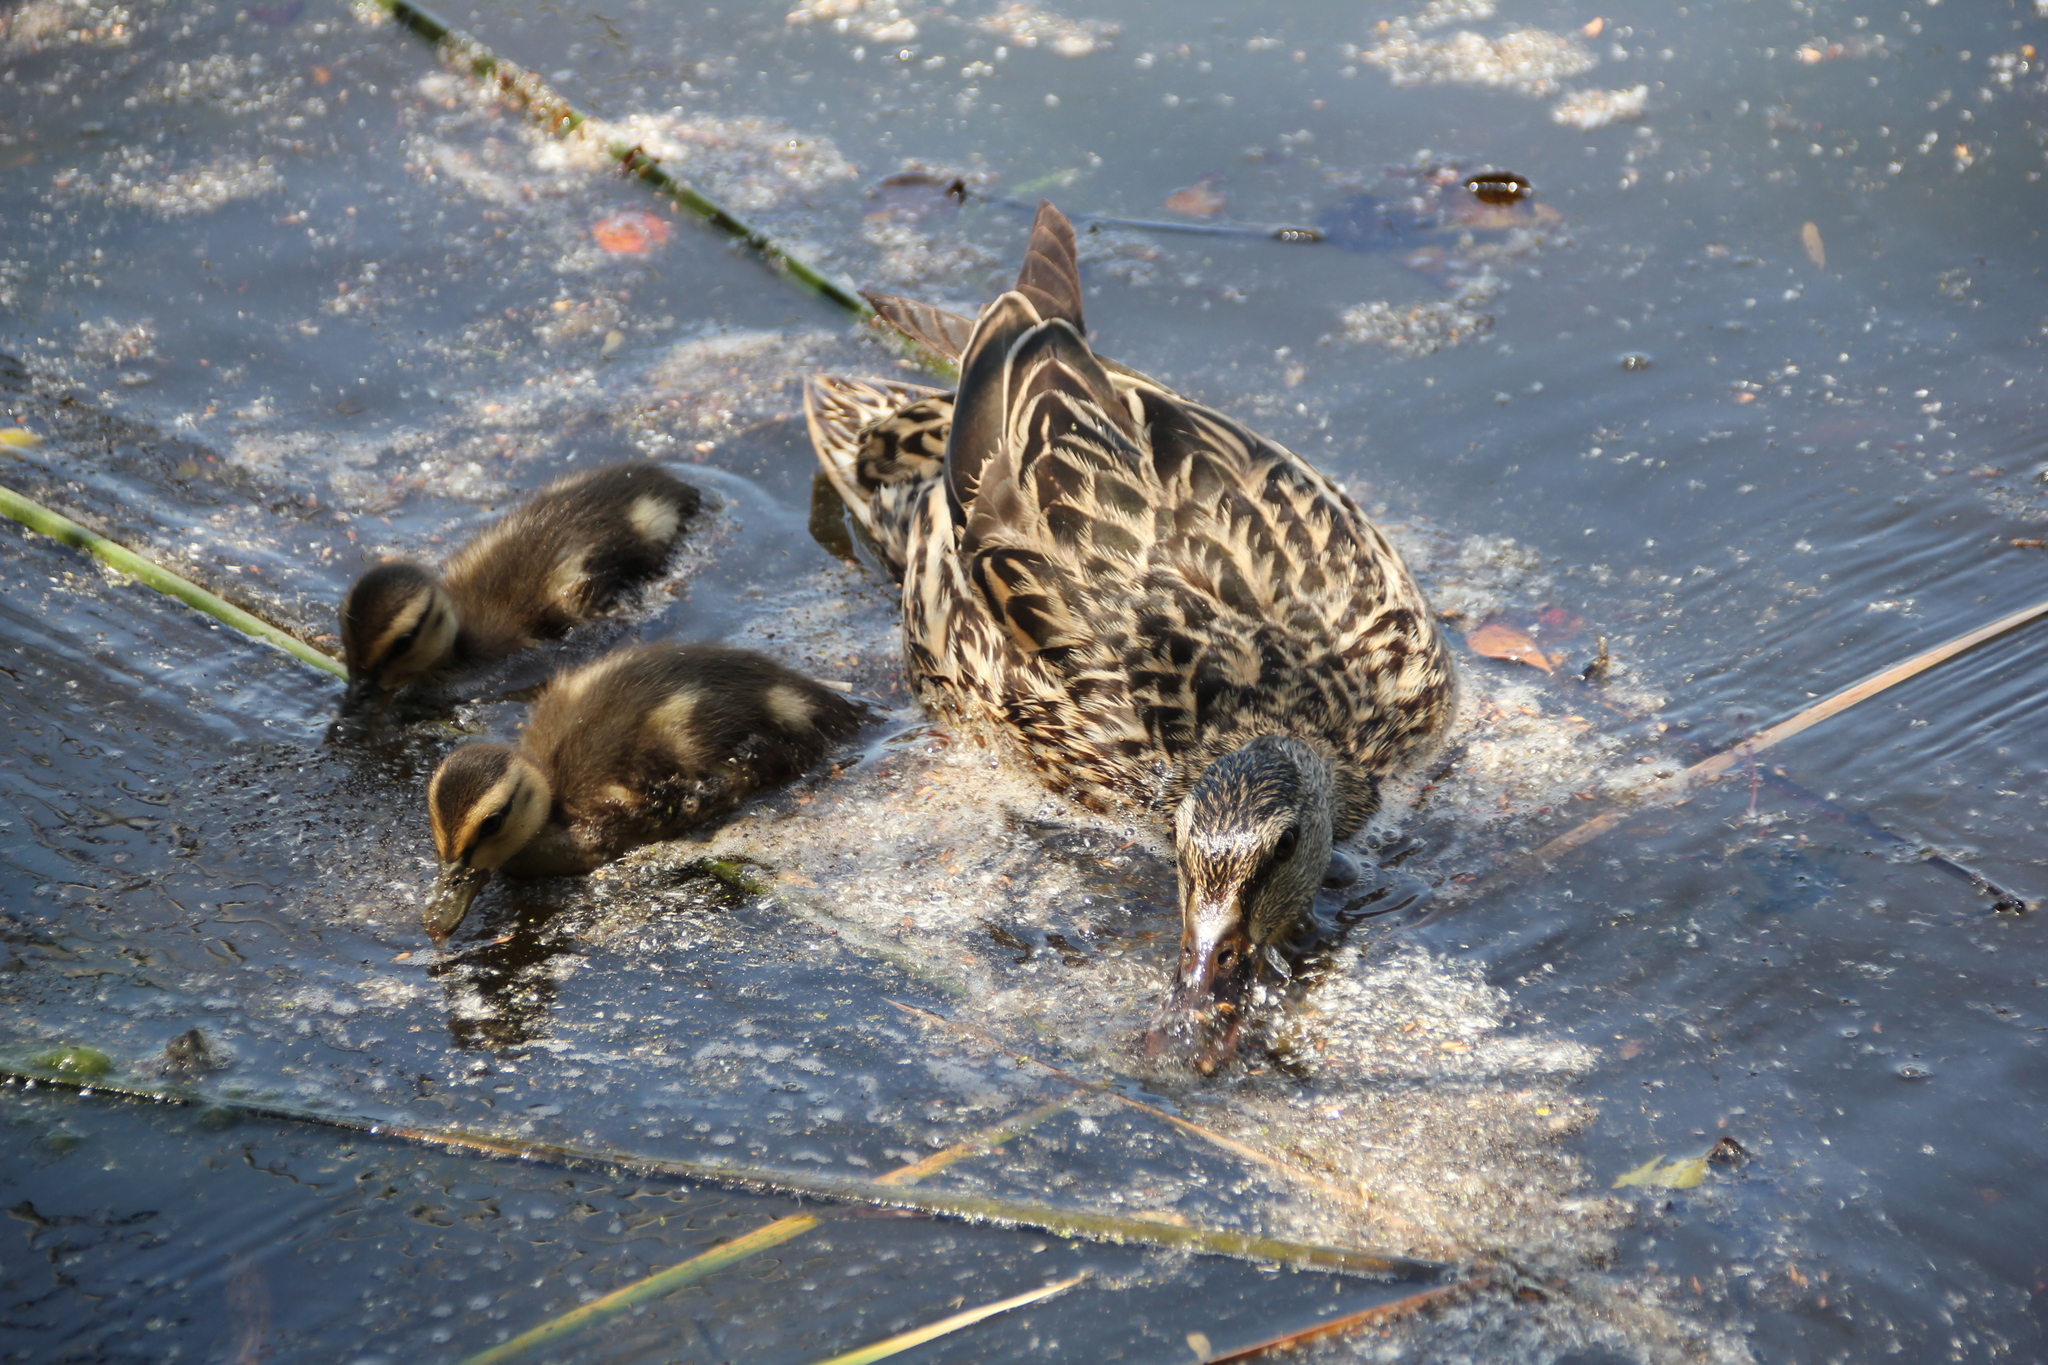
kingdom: Animalia
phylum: Chordata
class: Aves
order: Anseriformes
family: Anatidae
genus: Anas
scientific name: Anas platyrhynchos
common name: Mallard
